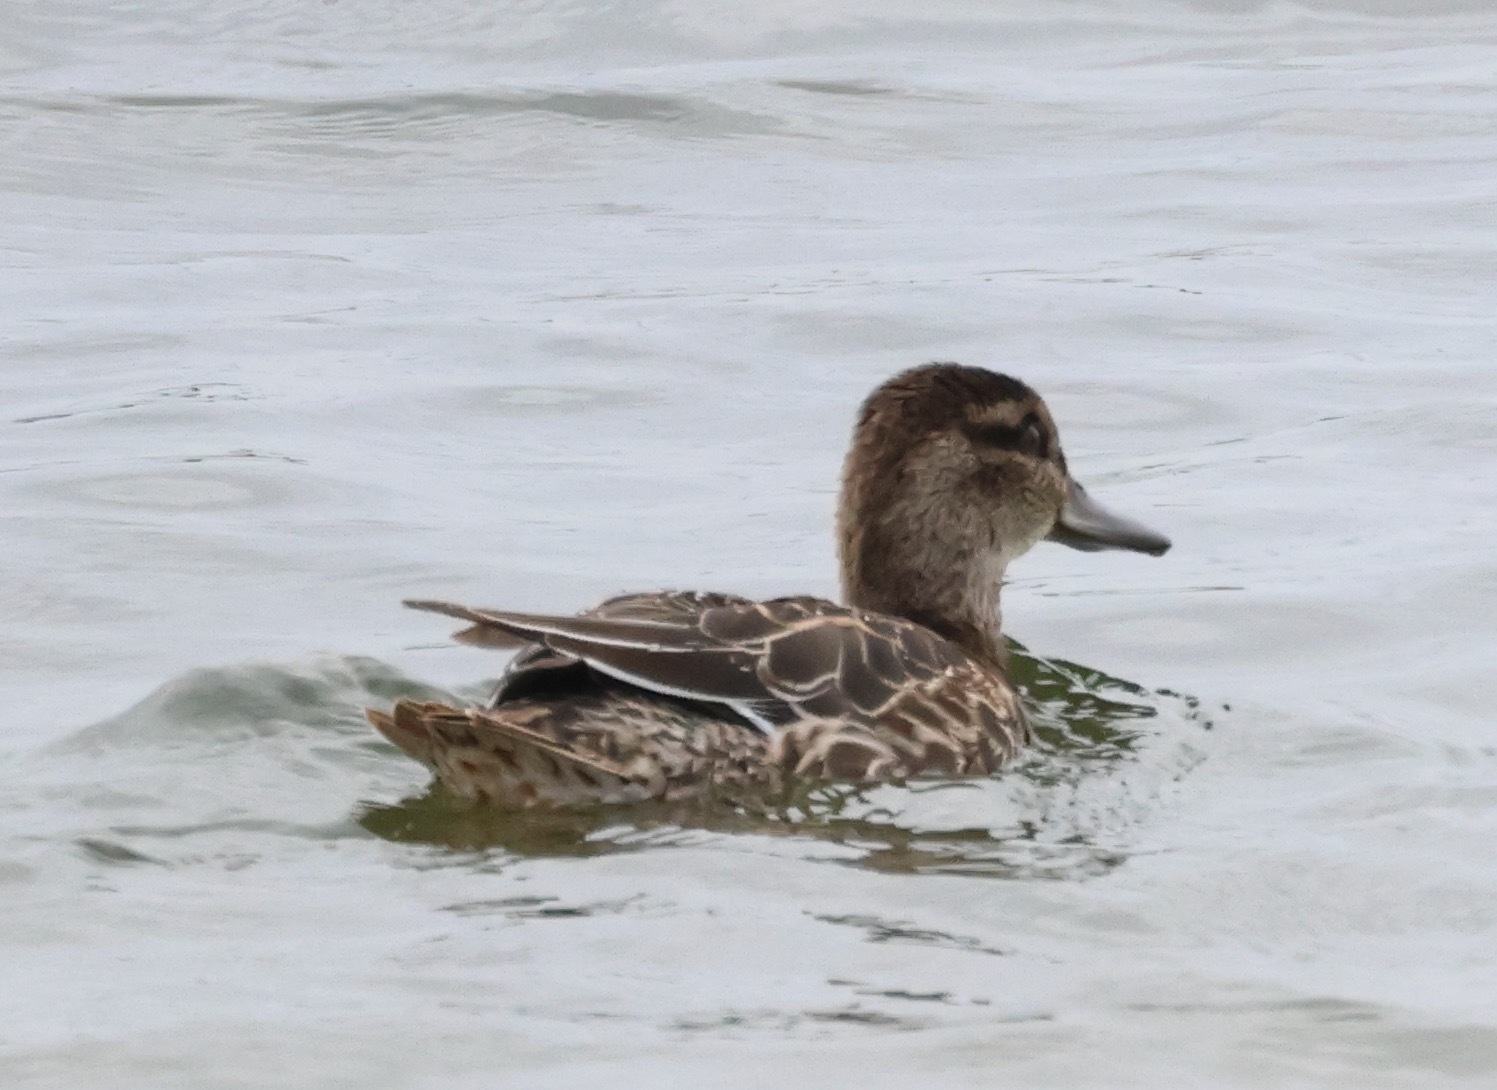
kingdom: Animalia
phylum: Chordata
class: Aves
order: Anseriformes
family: Anatidae
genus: Spatula
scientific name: Spatula querquedula
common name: Garganey
